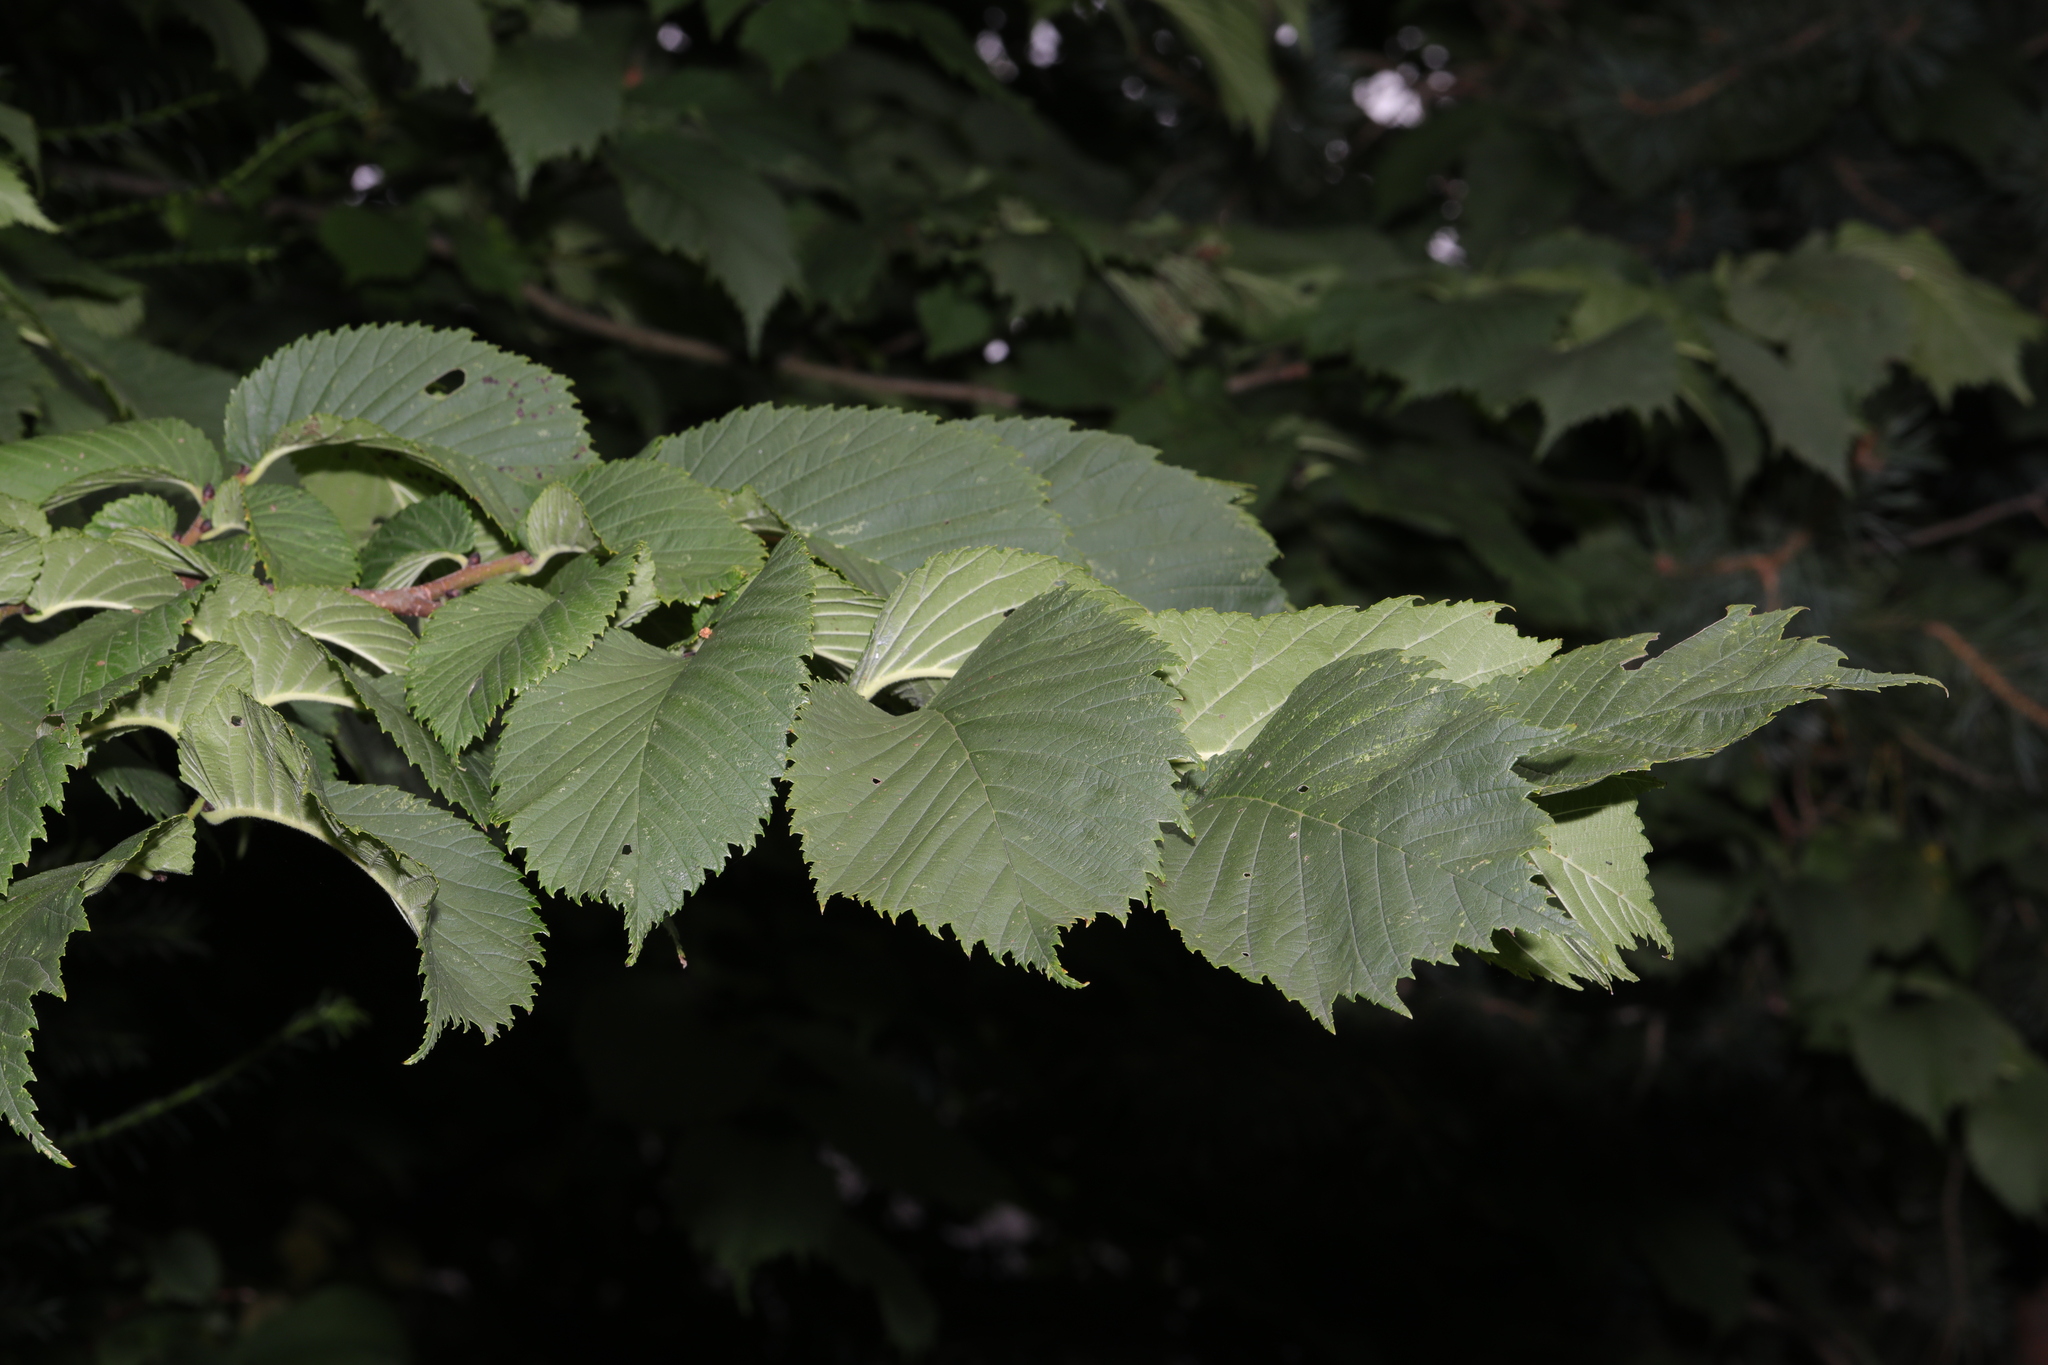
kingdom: Plantae
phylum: Tracheophyta
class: Magnoliopsida
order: Rosales
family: Ulmaceae
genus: Ulmus
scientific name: Ulmus glabra
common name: Wych elm
